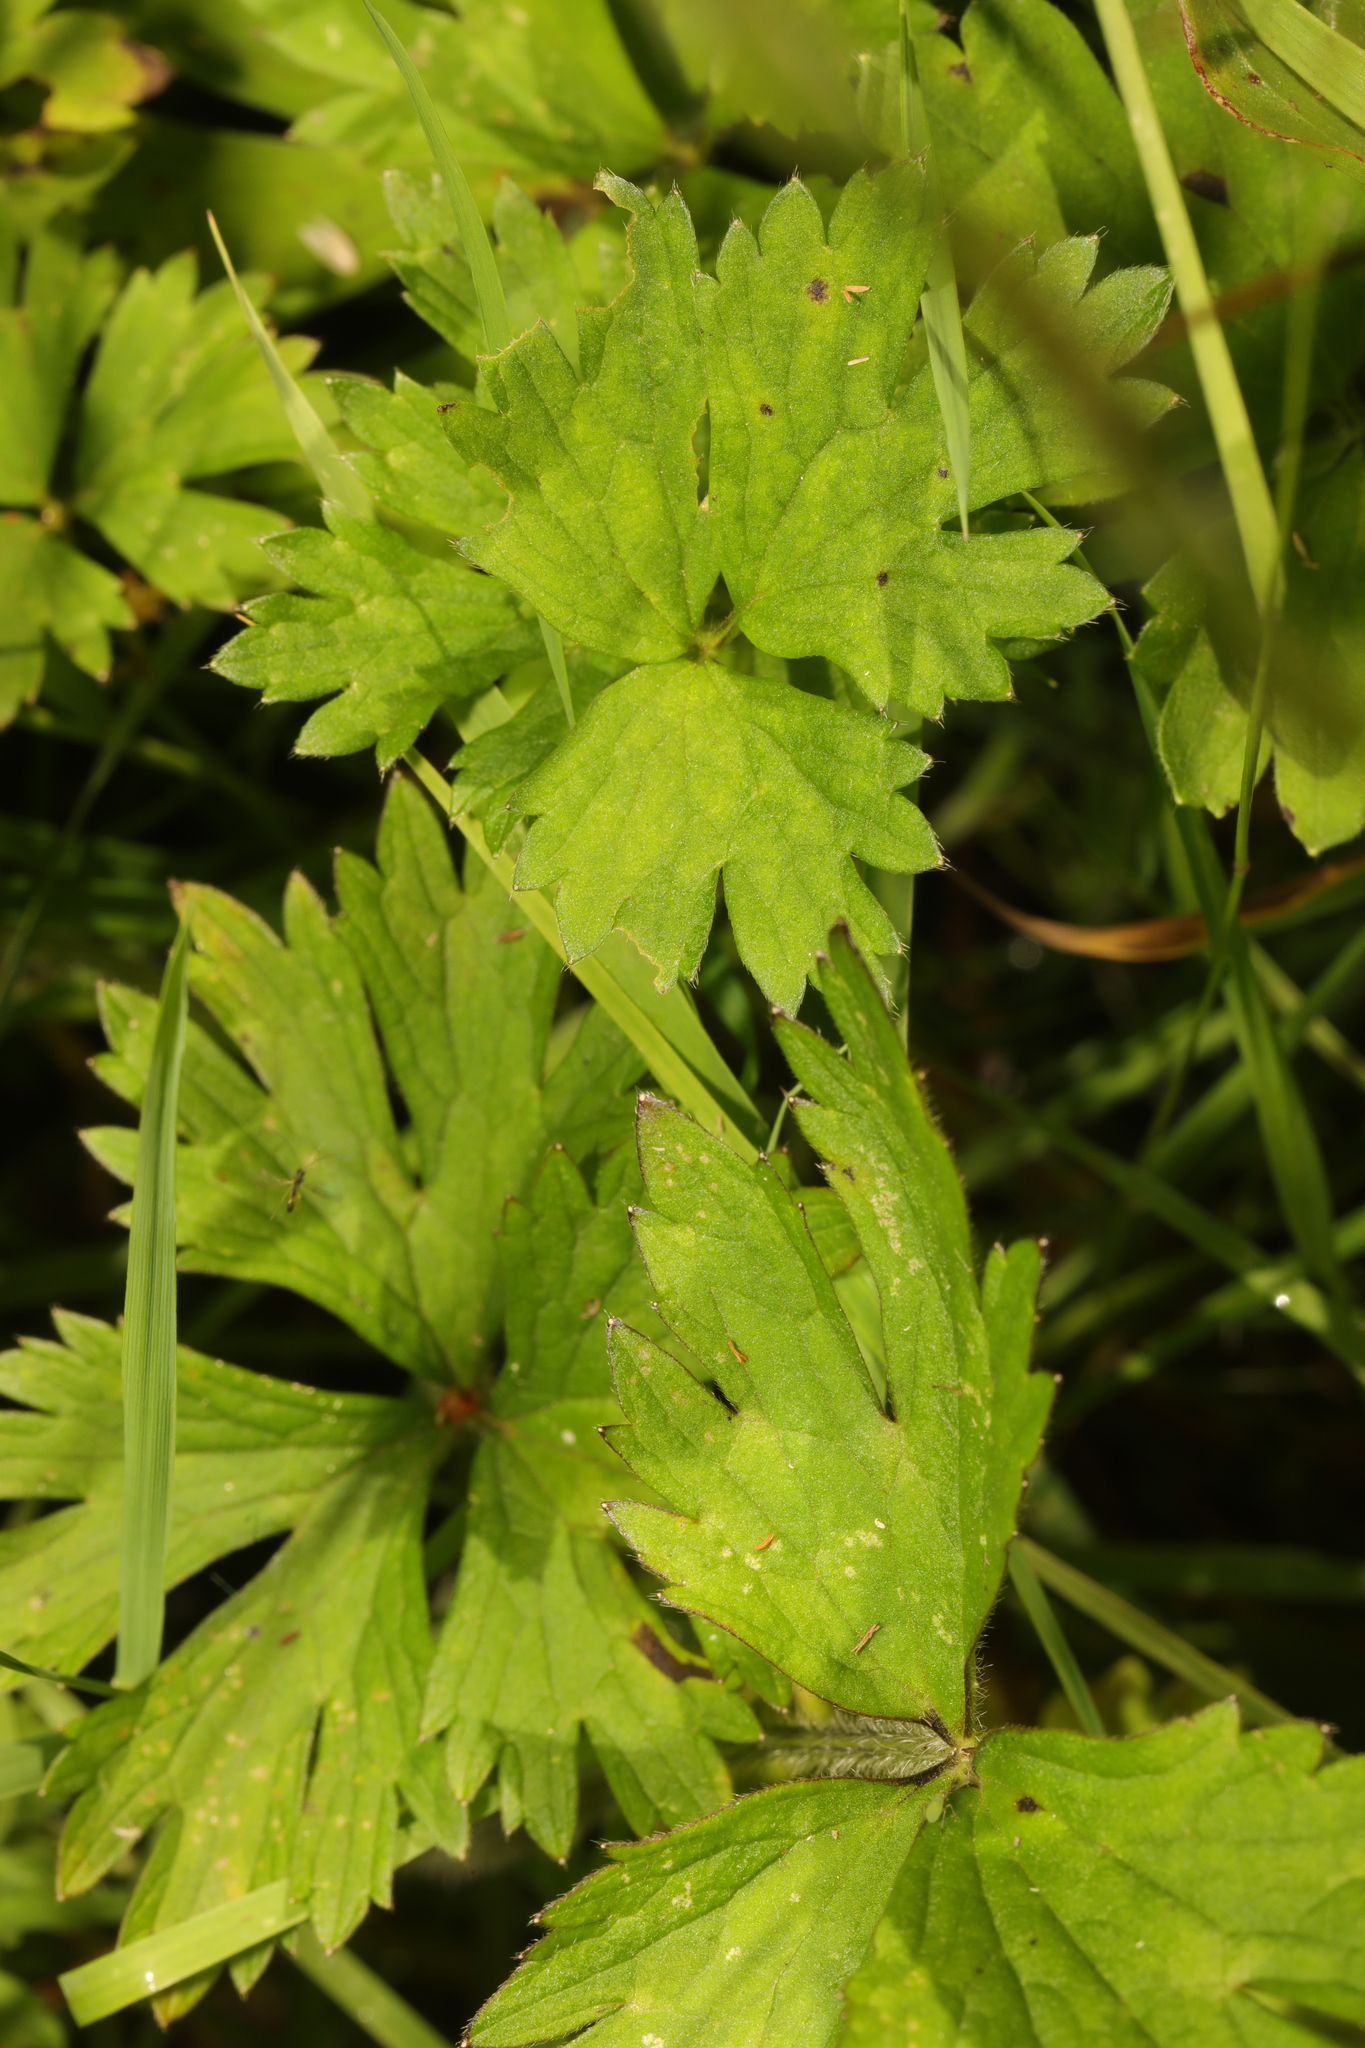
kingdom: Plantae
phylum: Tracheophyta
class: Magnoliopsida
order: Ranunculales
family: Ranunculaceae
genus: Ranunculus
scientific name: Ranunculus repens
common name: Creeping buttercup
